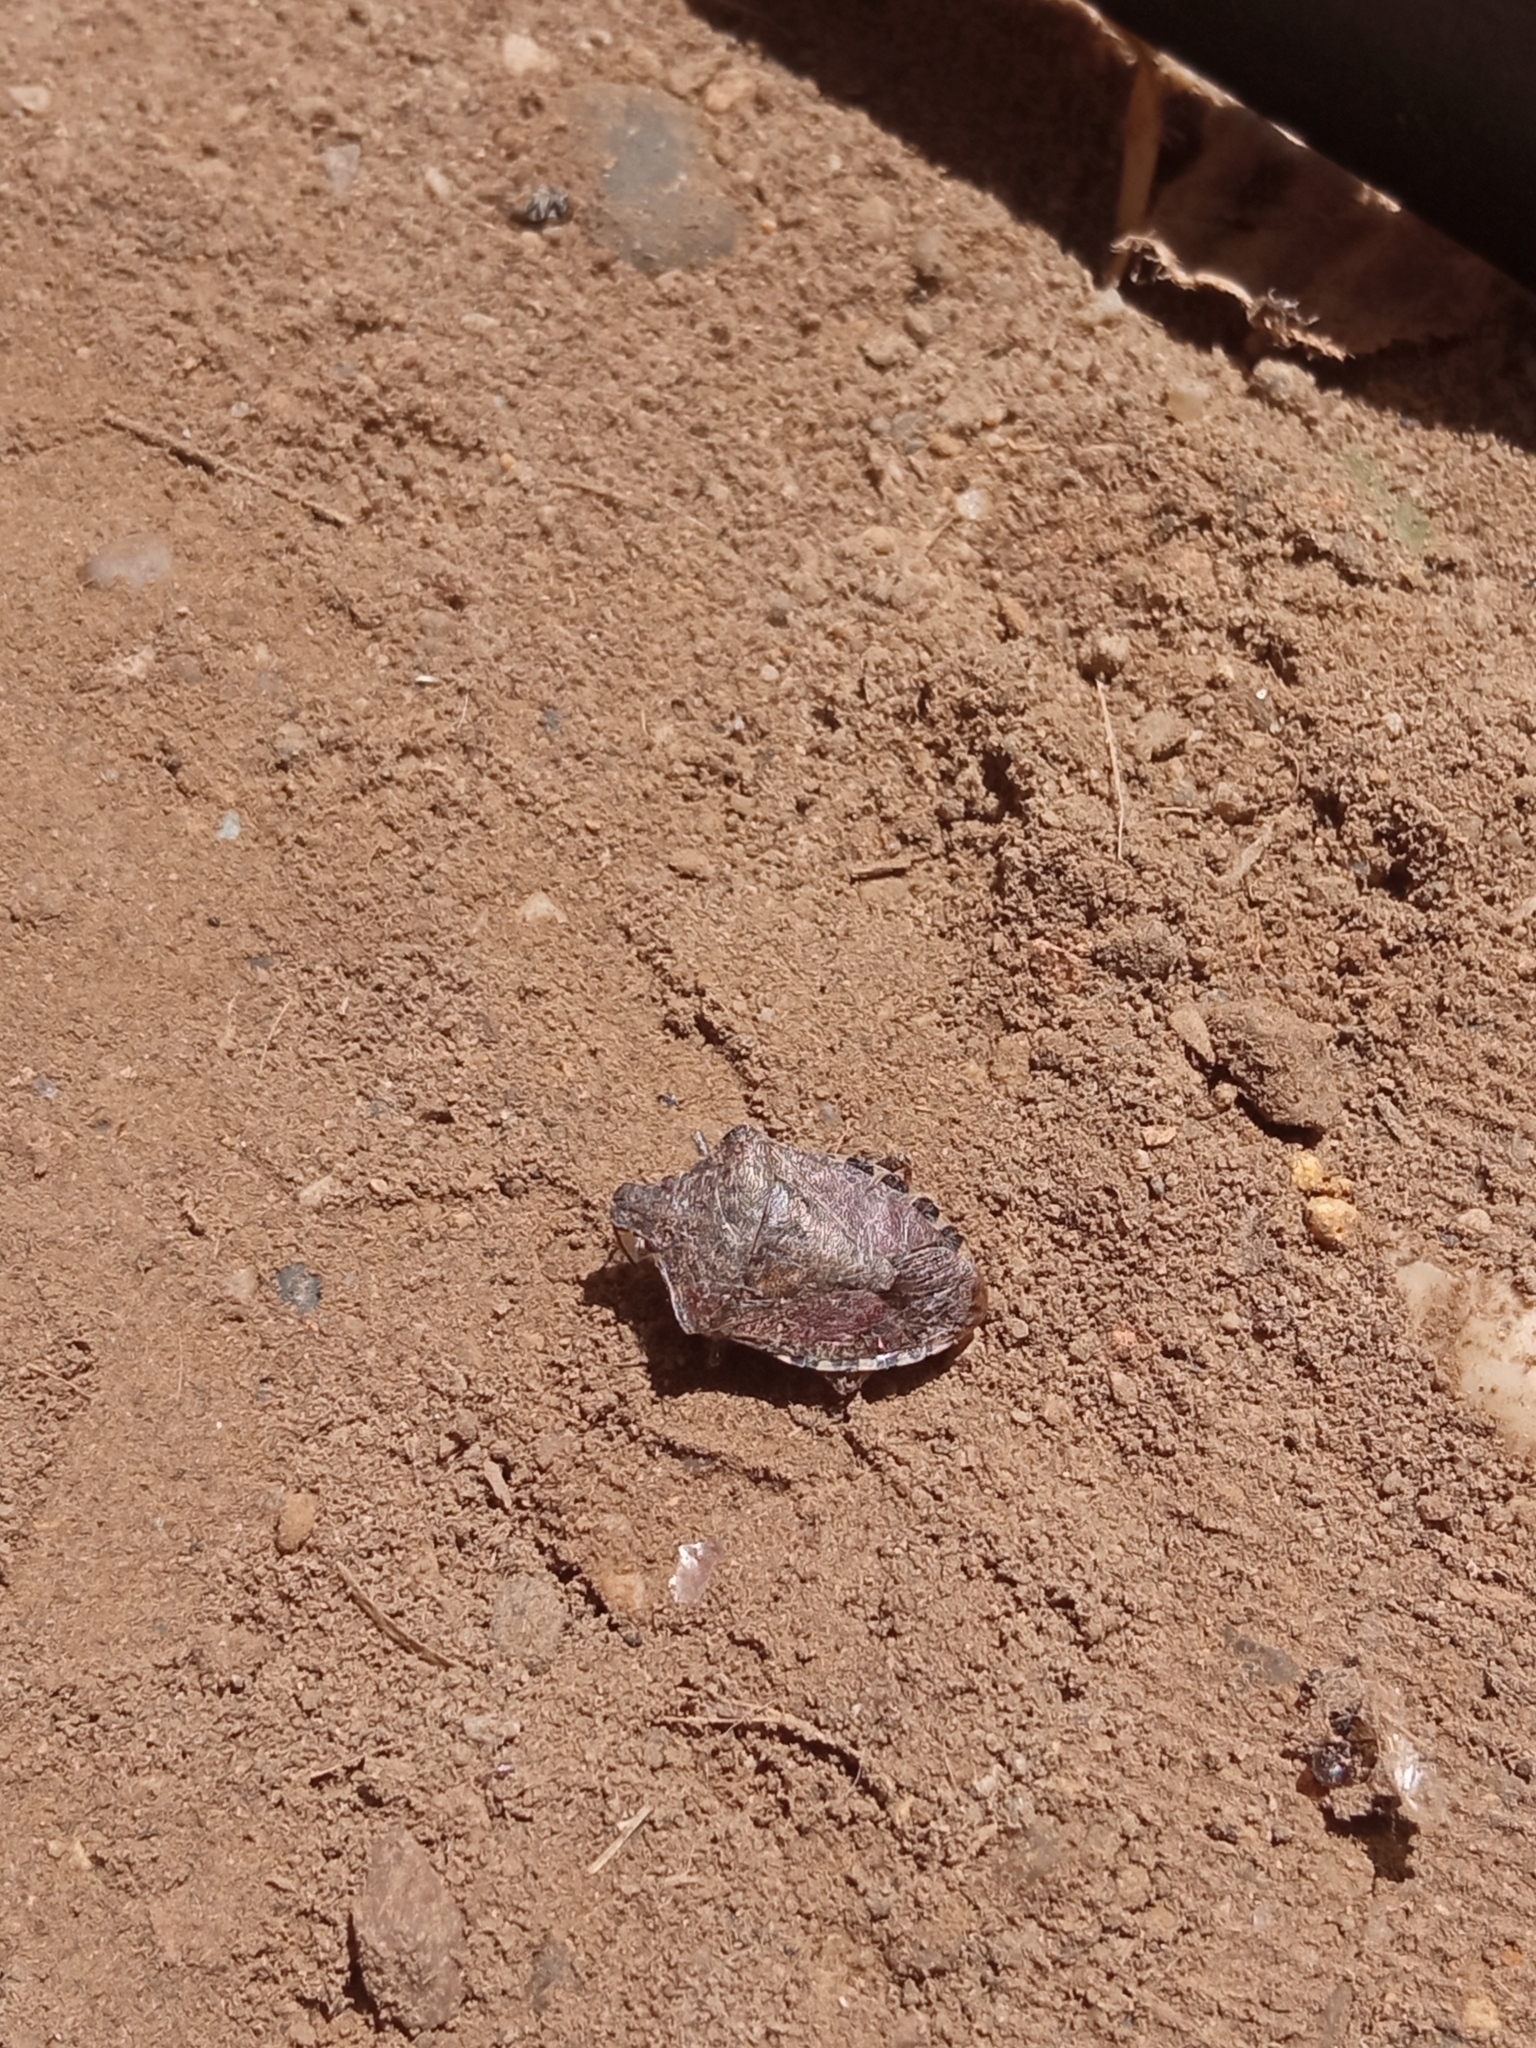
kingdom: Animalia
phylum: Arthropoda
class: Insecta
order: Hemiptera
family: Pentatomidae
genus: Halyomorpha
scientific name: Halyomorpha halys
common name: Brown marmorated stink bug
